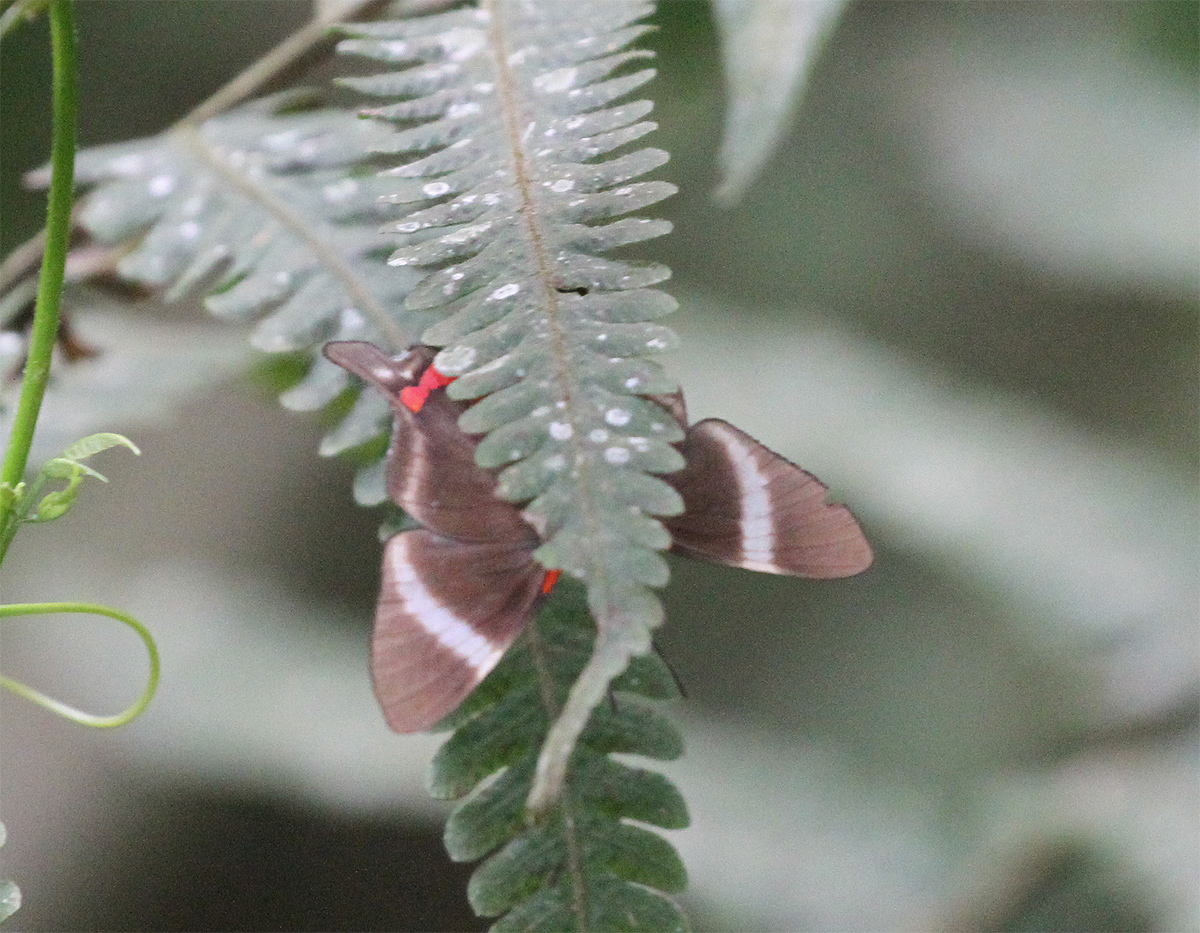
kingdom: Animalia
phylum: Arthropoda
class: Insecta
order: Lepidoptera
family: Riodinidae
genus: Rhetus
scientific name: Rhetus periander
